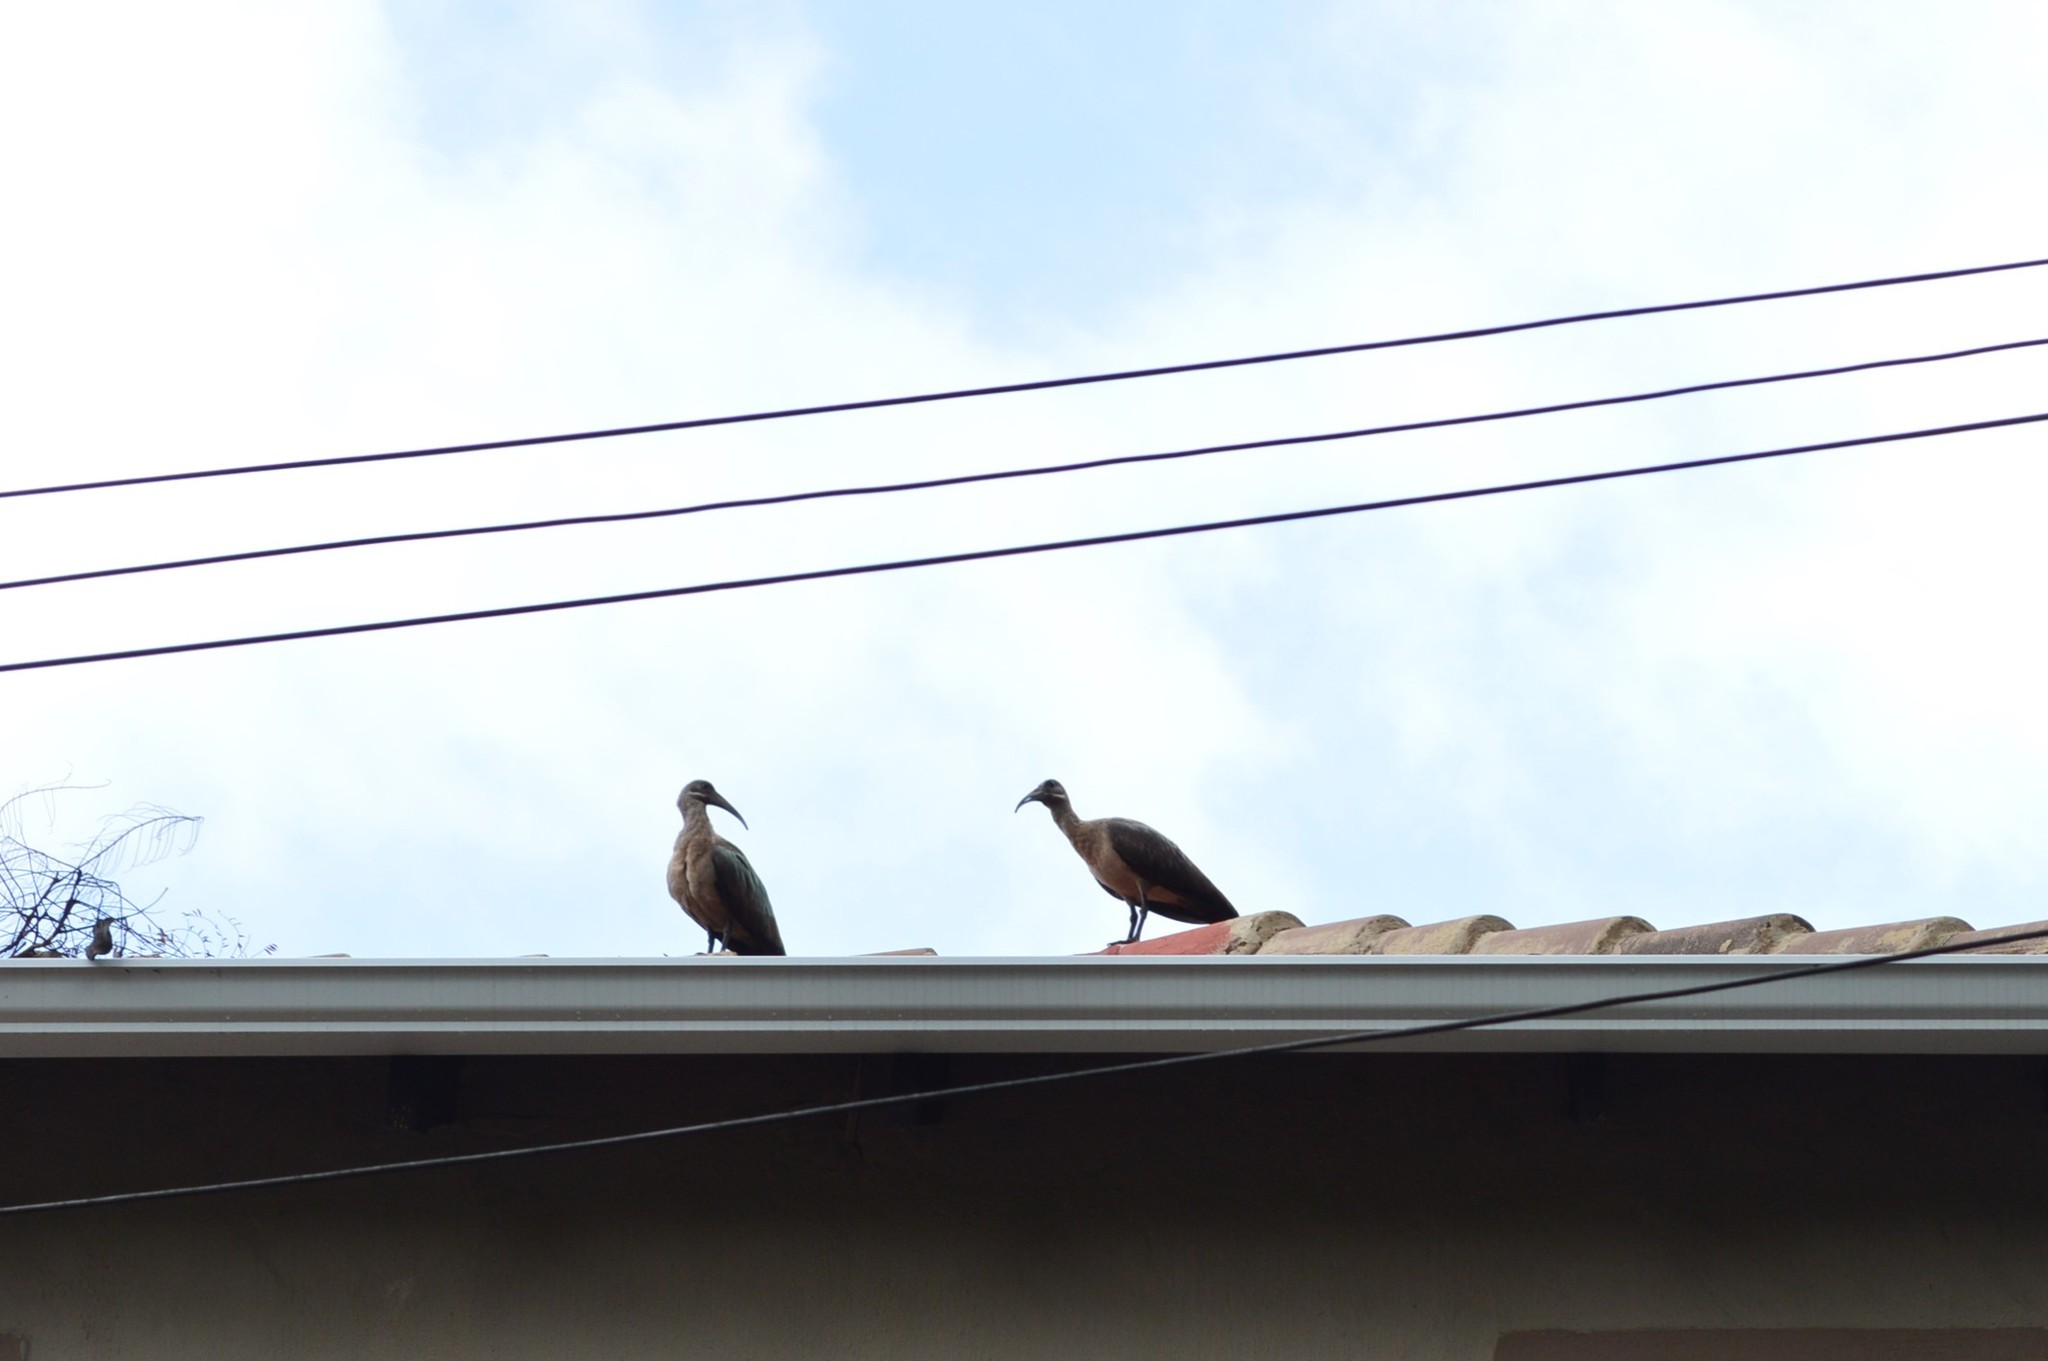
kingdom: Animalia
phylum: Chordata
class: Aves
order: Pelecaniformes
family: Threskiornithidae
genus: Bostrychia
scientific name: Bostrychia hagedash
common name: Hadada ibis
